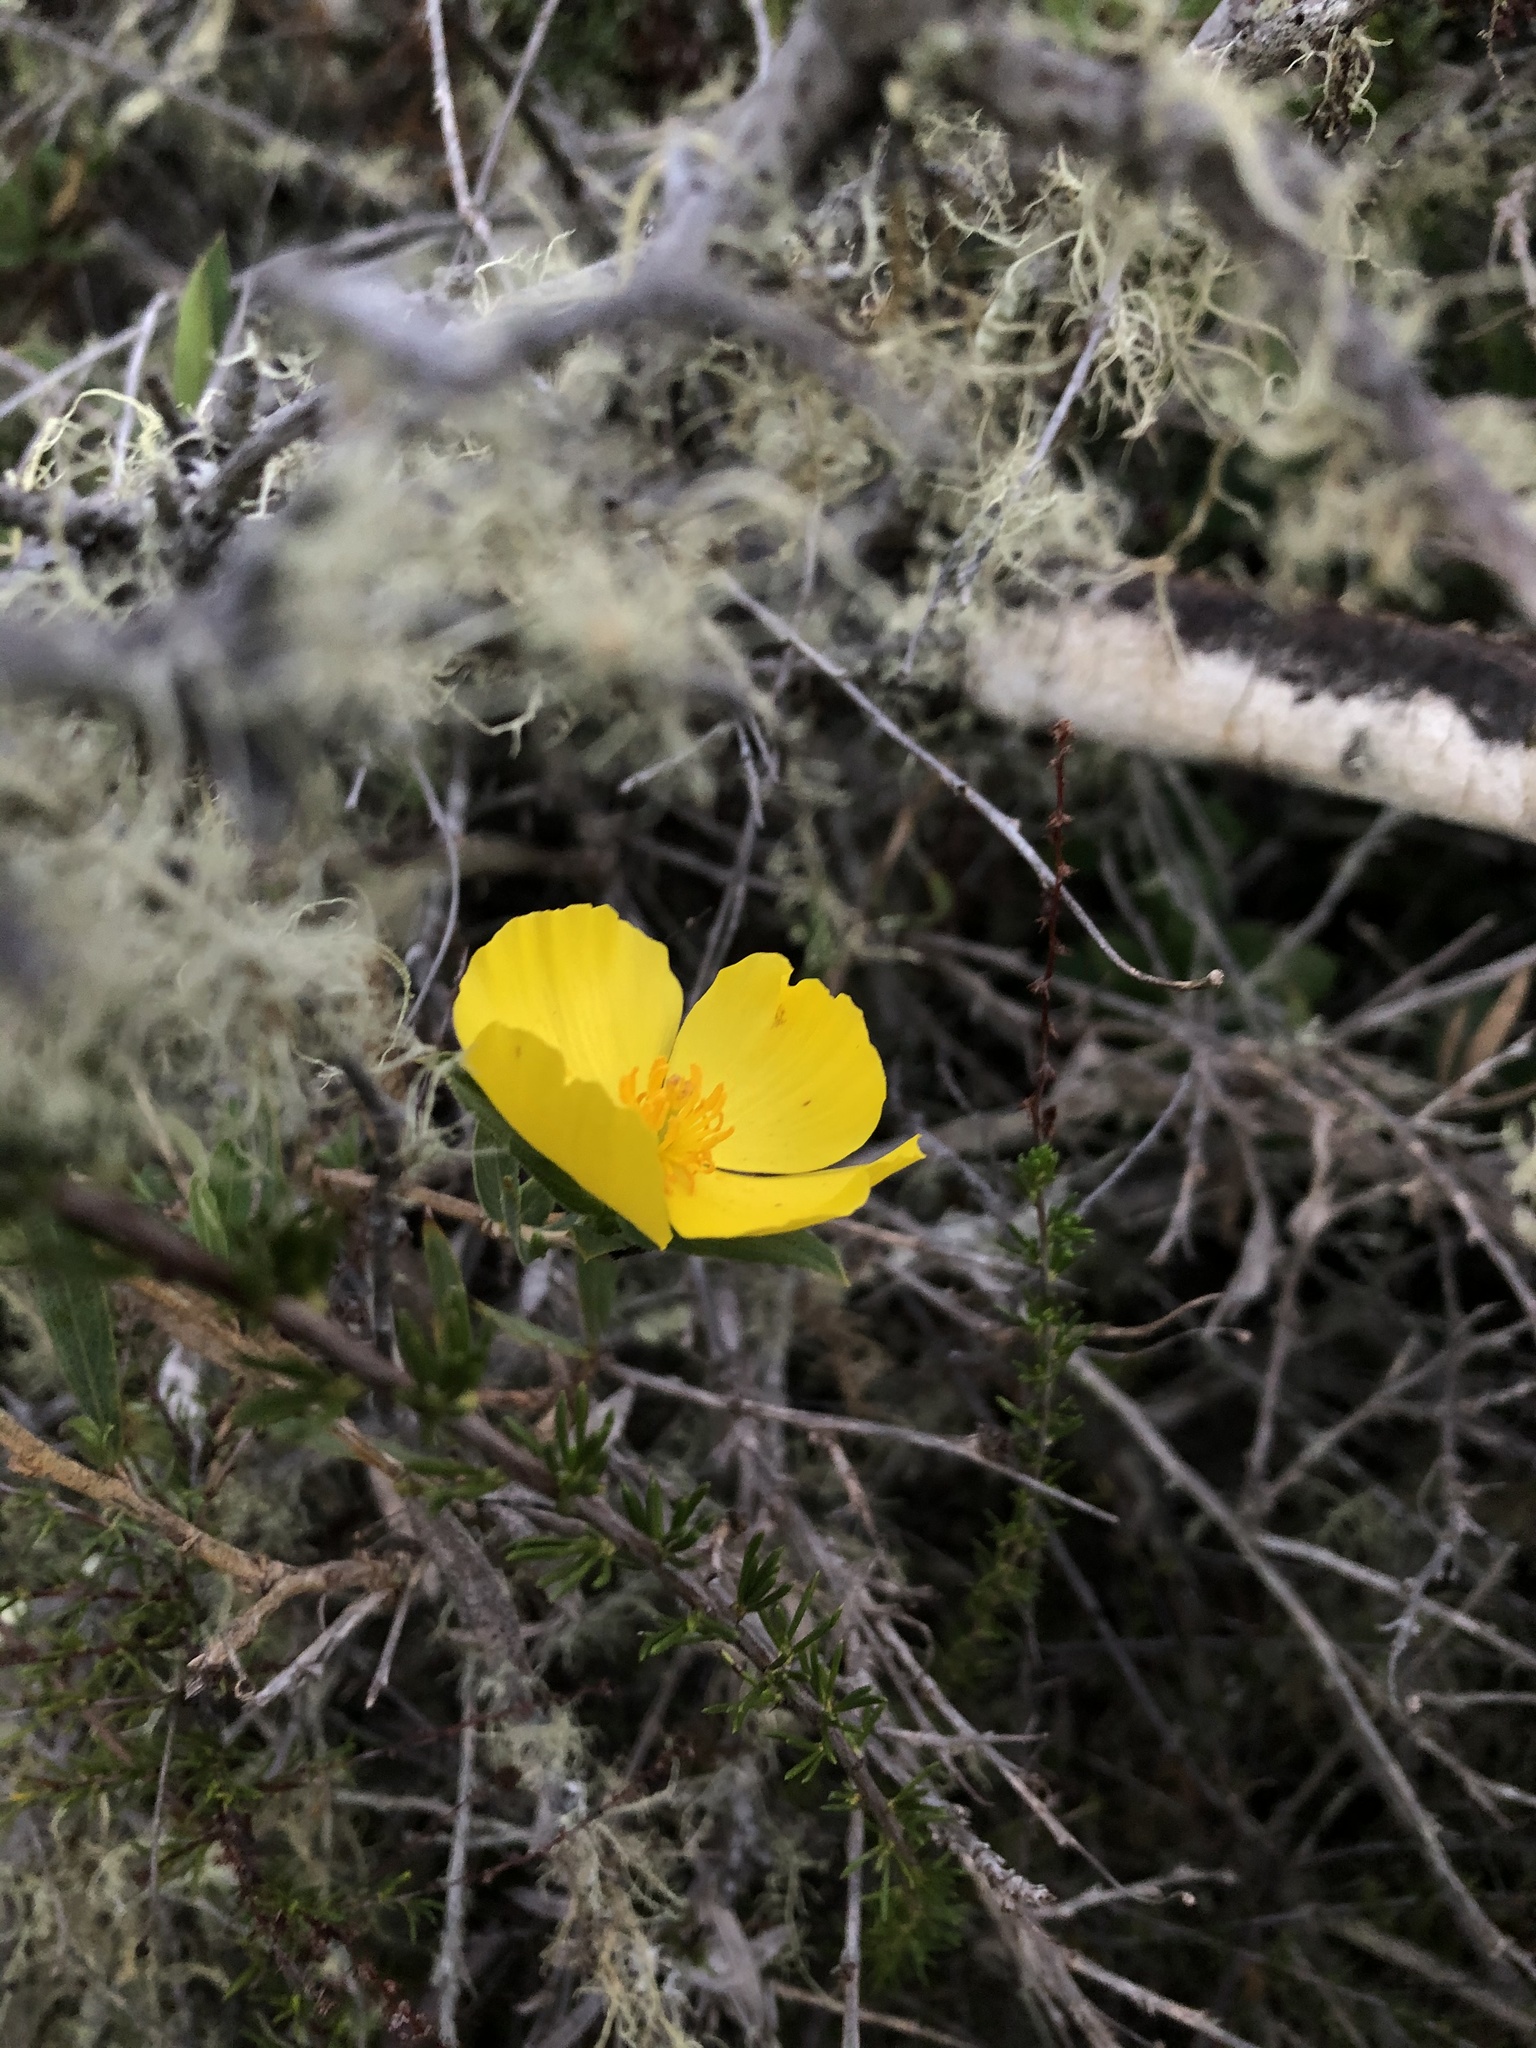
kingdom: Plantae
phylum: Tracheophyta
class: Magnoliopsida
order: Ranunculales
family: Papaveraceae
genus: Dendromecon
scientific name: Dendromecon rigida
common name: Tree poppy
